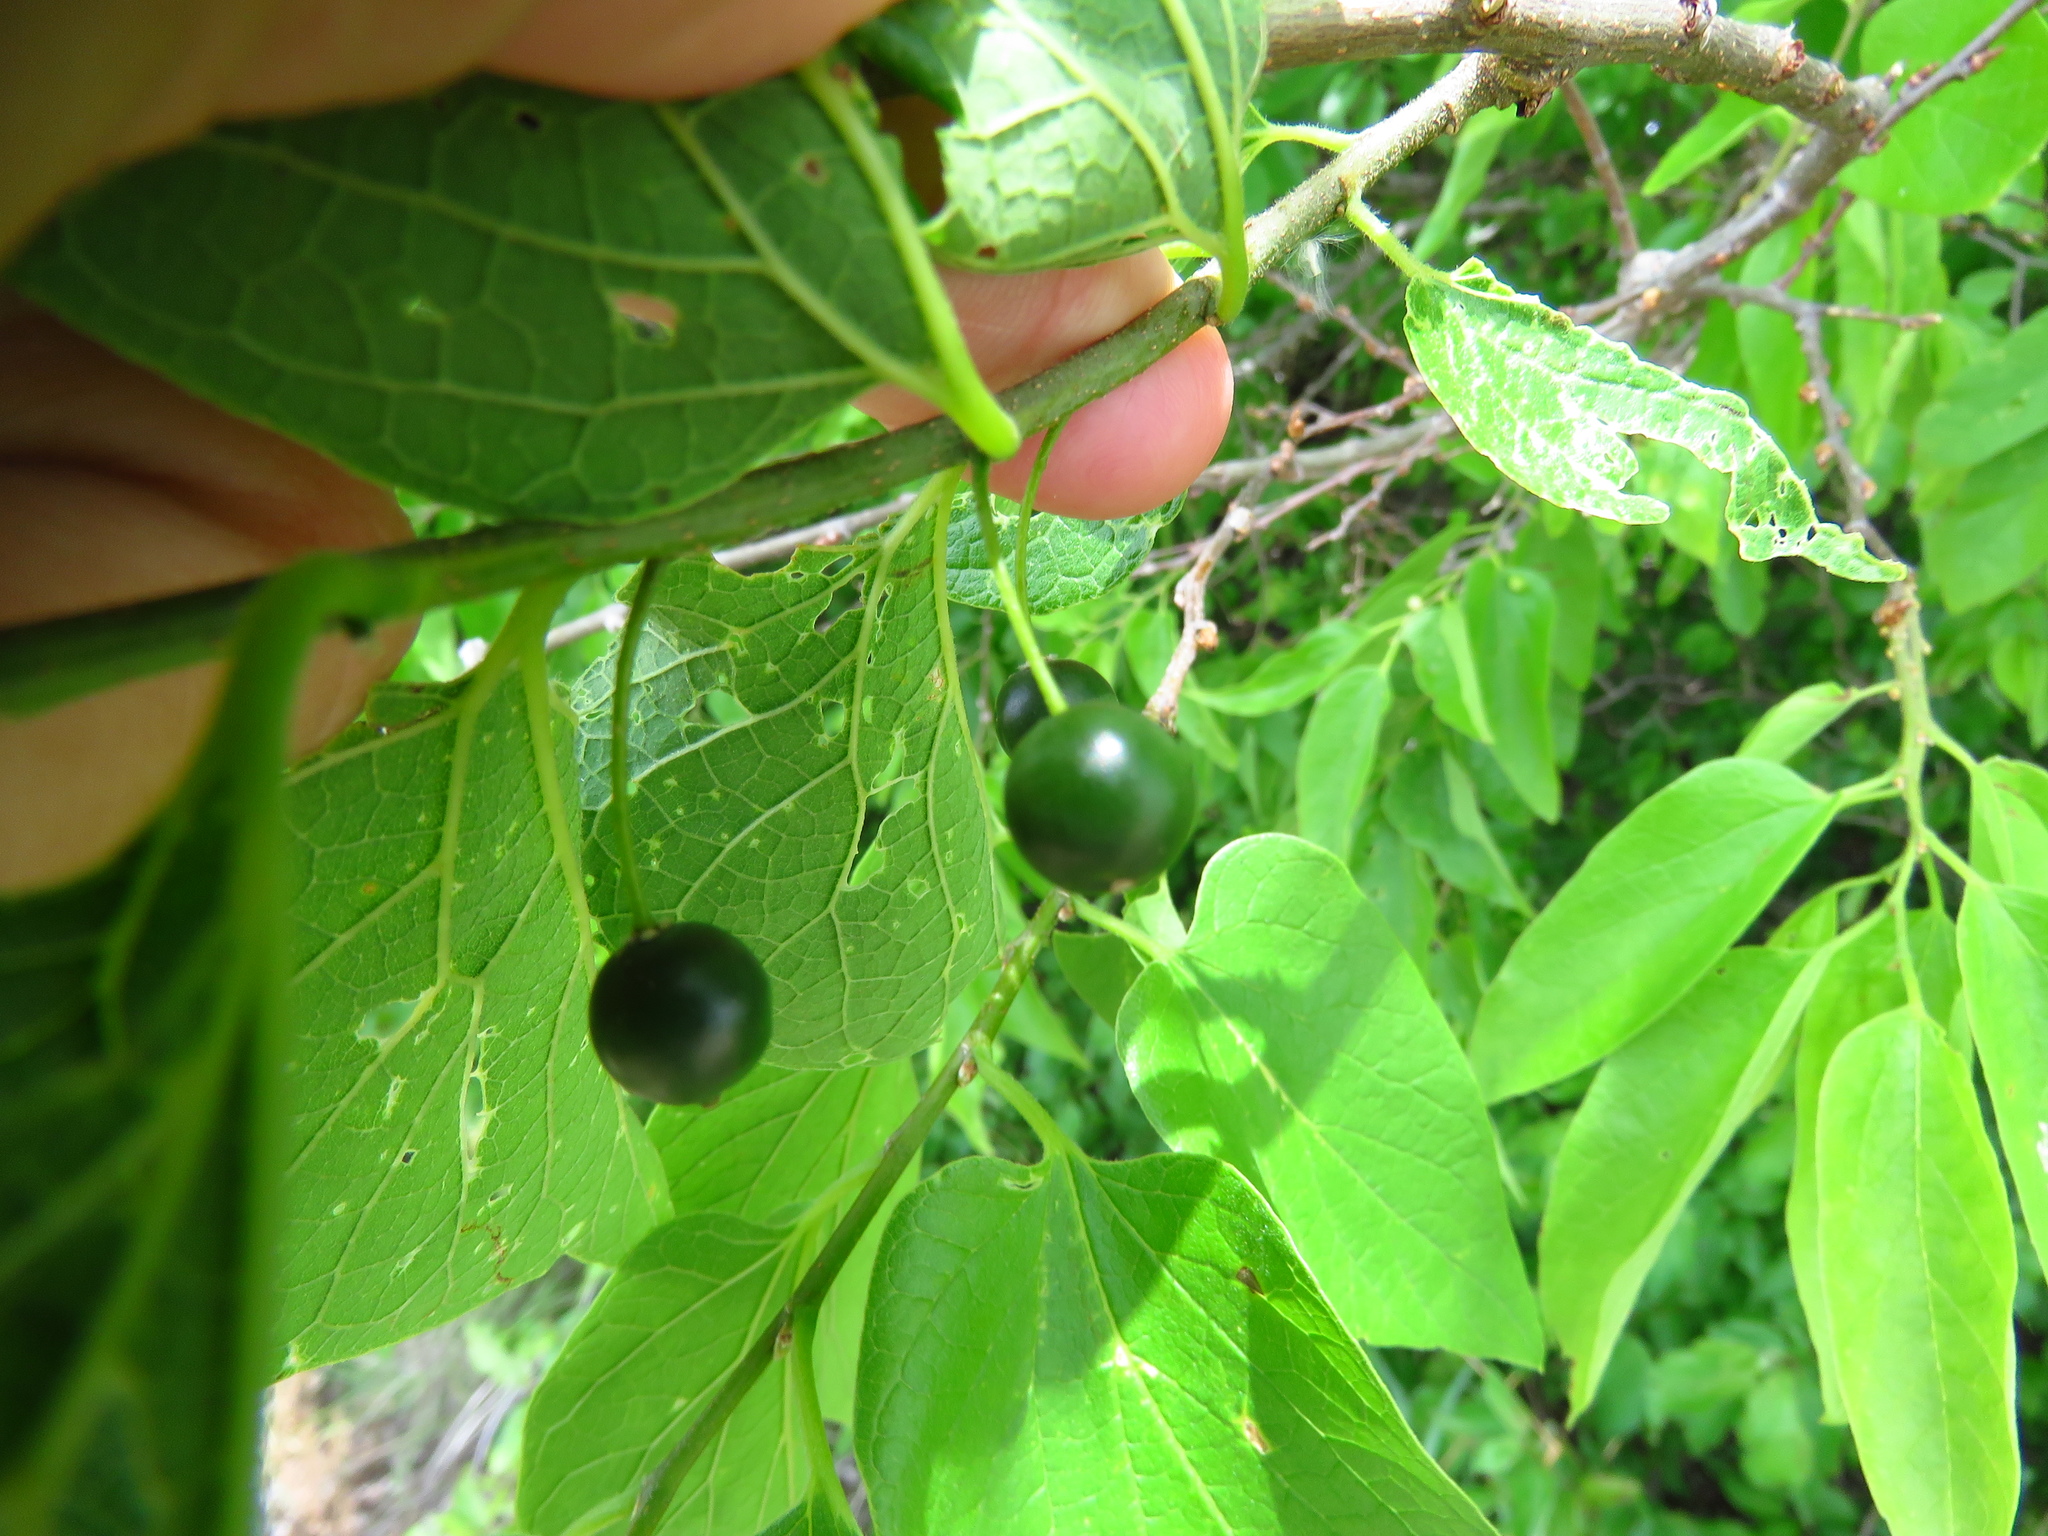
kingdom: Plantae
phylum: Tracheophyta
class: Magnoliopsida
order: Rosales
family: Cannabaceae
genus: Celtis
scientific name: Celtis laevigata
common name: Sugarberry
